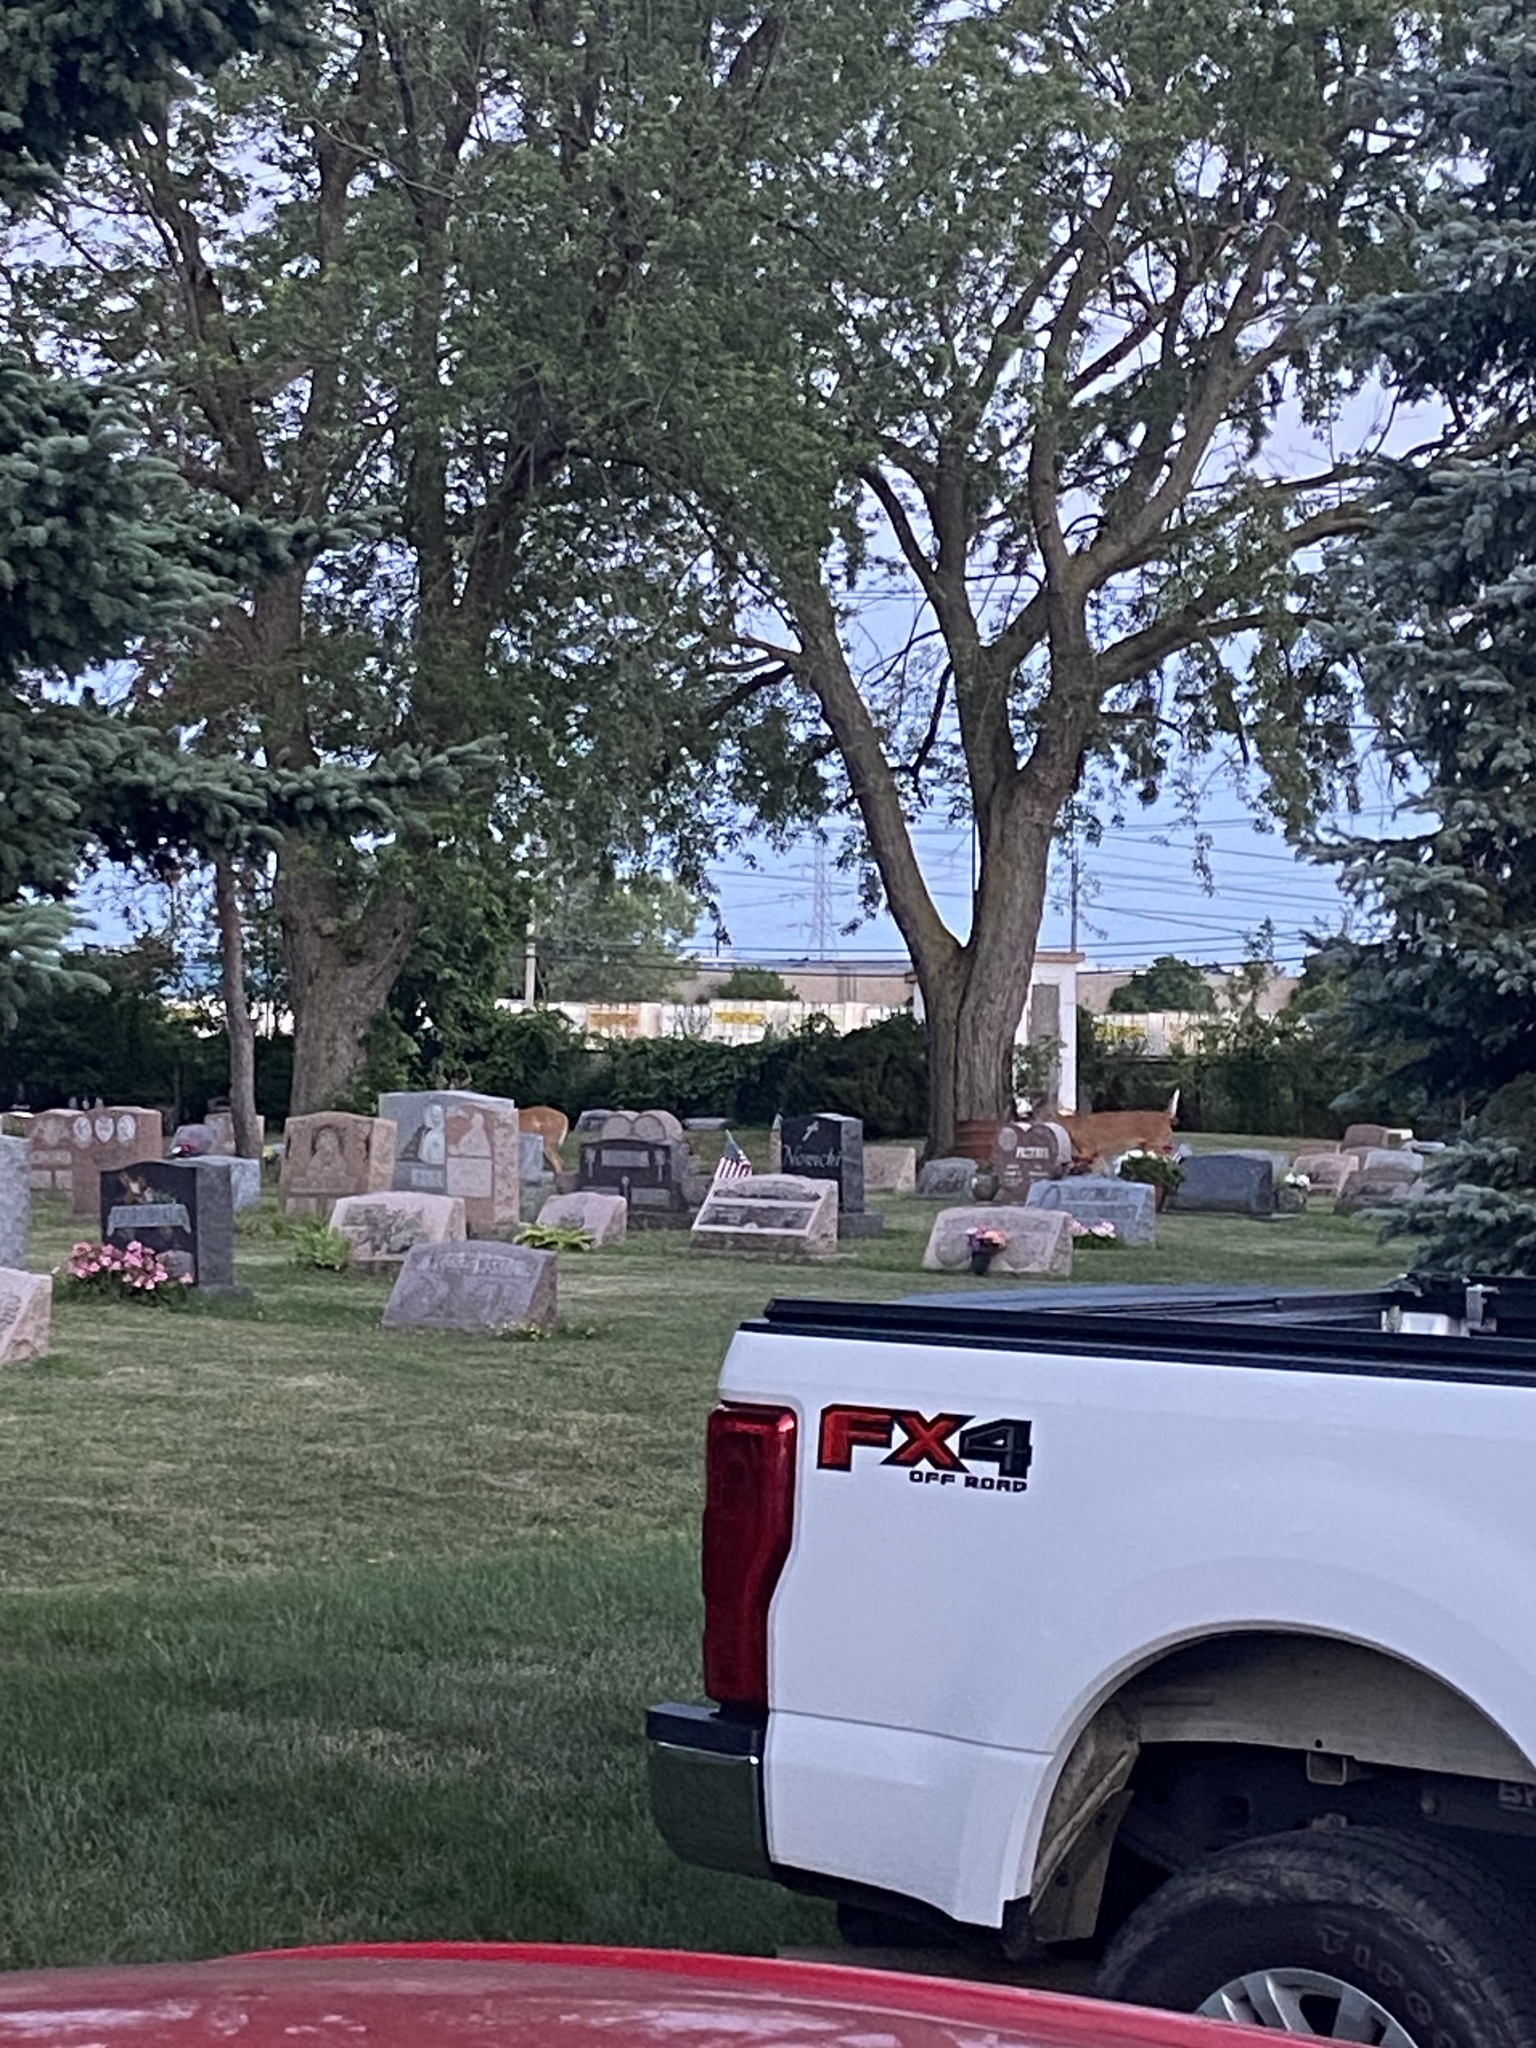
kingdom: Animalia
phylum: Chordata
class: Mammalia
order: Artiodactyla
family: Cervidae
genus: Odocoileus
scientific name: Odocoileus virginianus
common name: White-tailed deer
